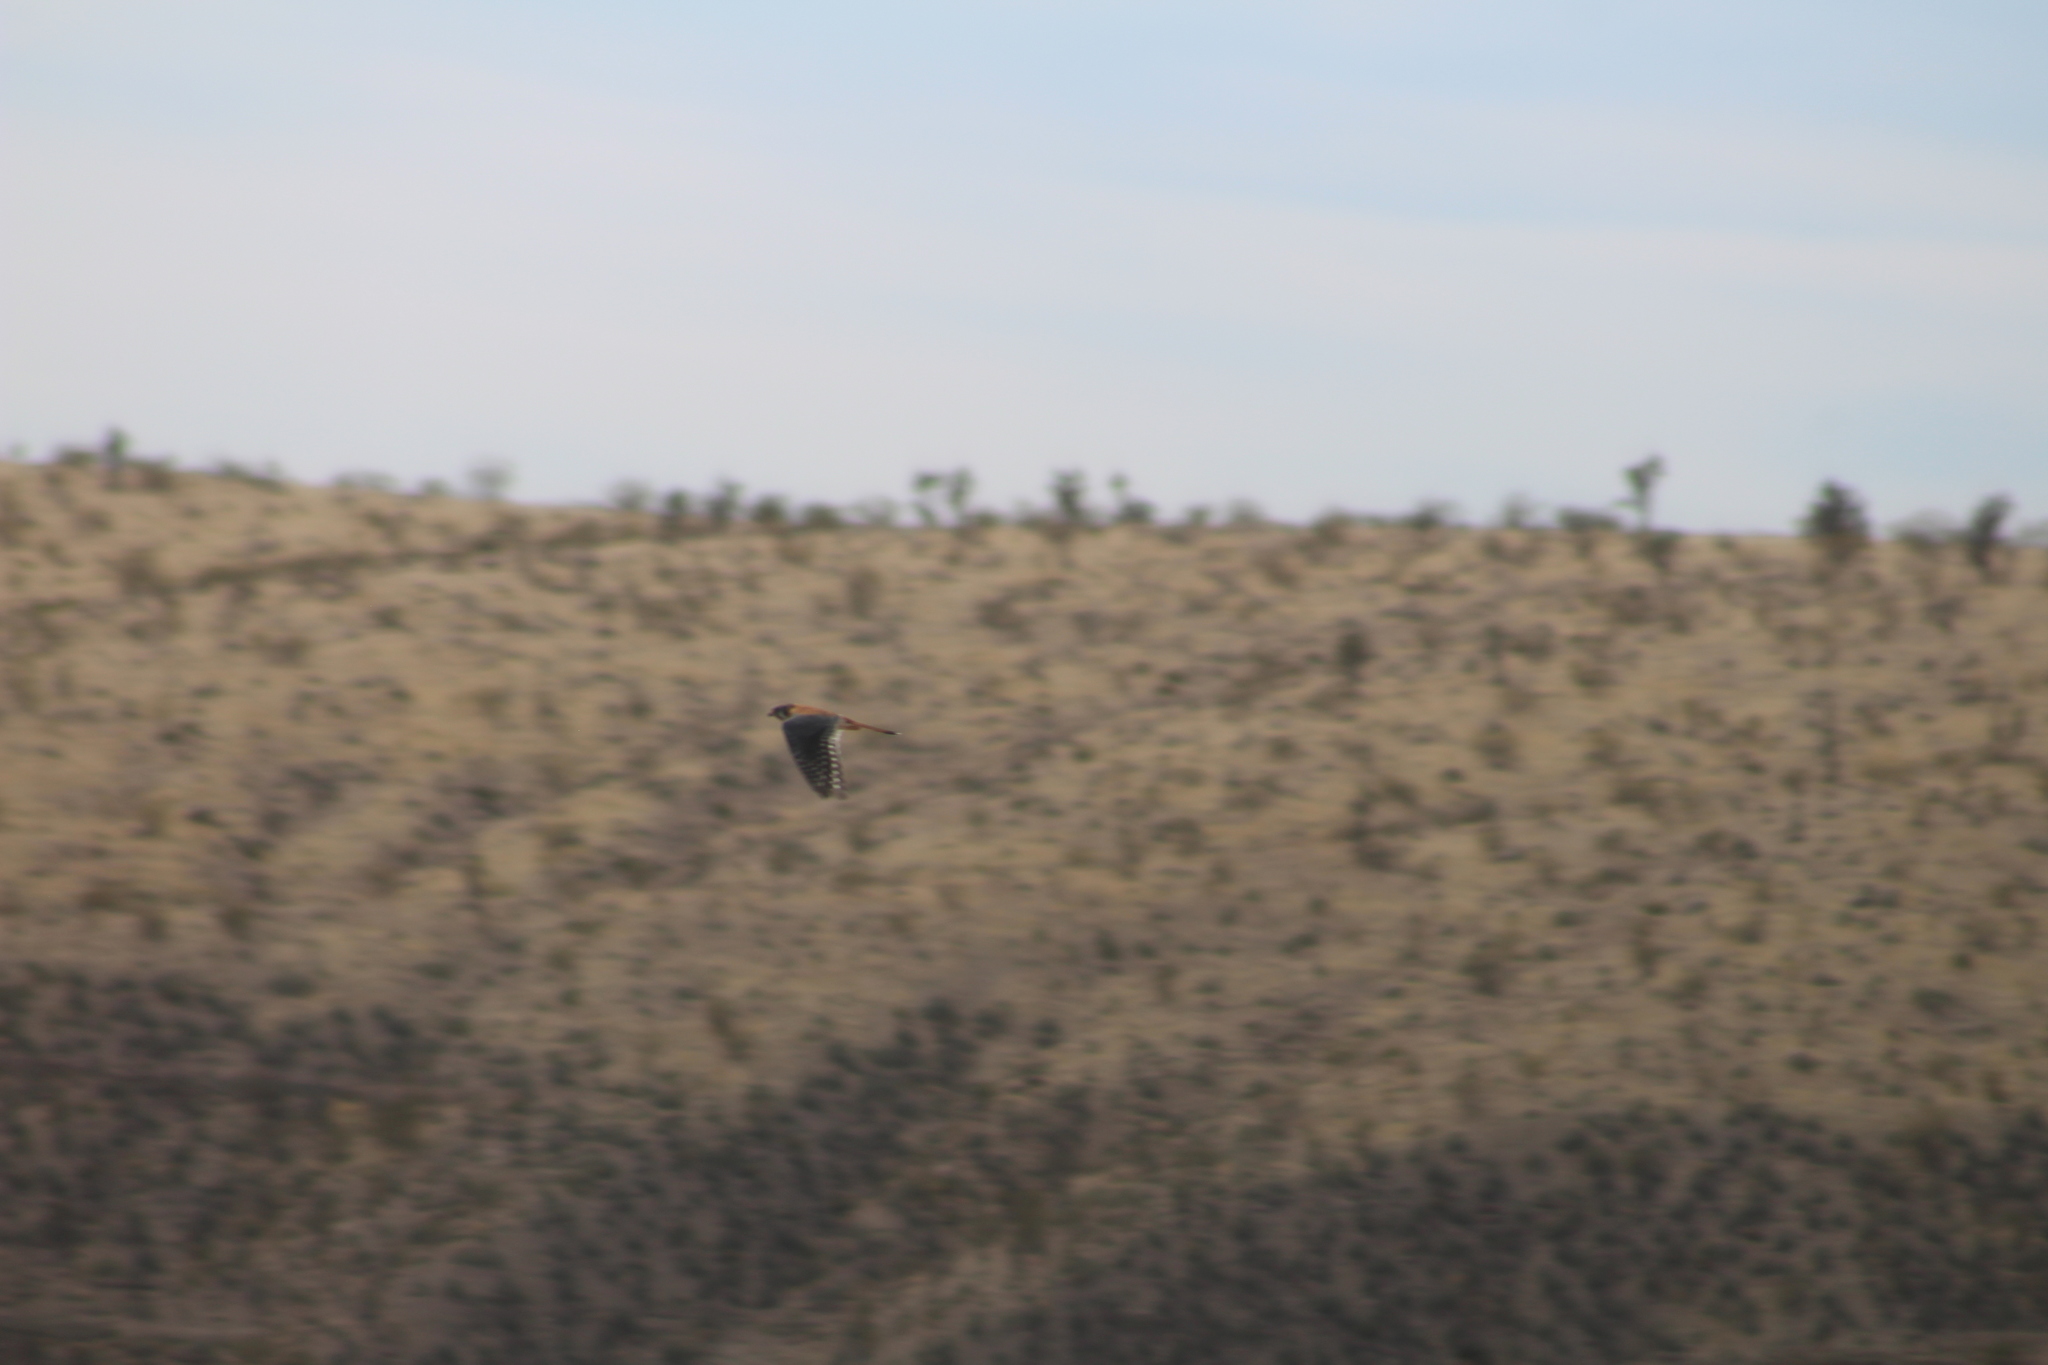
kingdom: Animalia
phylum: Chordata
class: Aves
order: Falconiformes
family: Falconidae
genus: Falco
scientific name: Falco sparverius
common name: American kestrel
